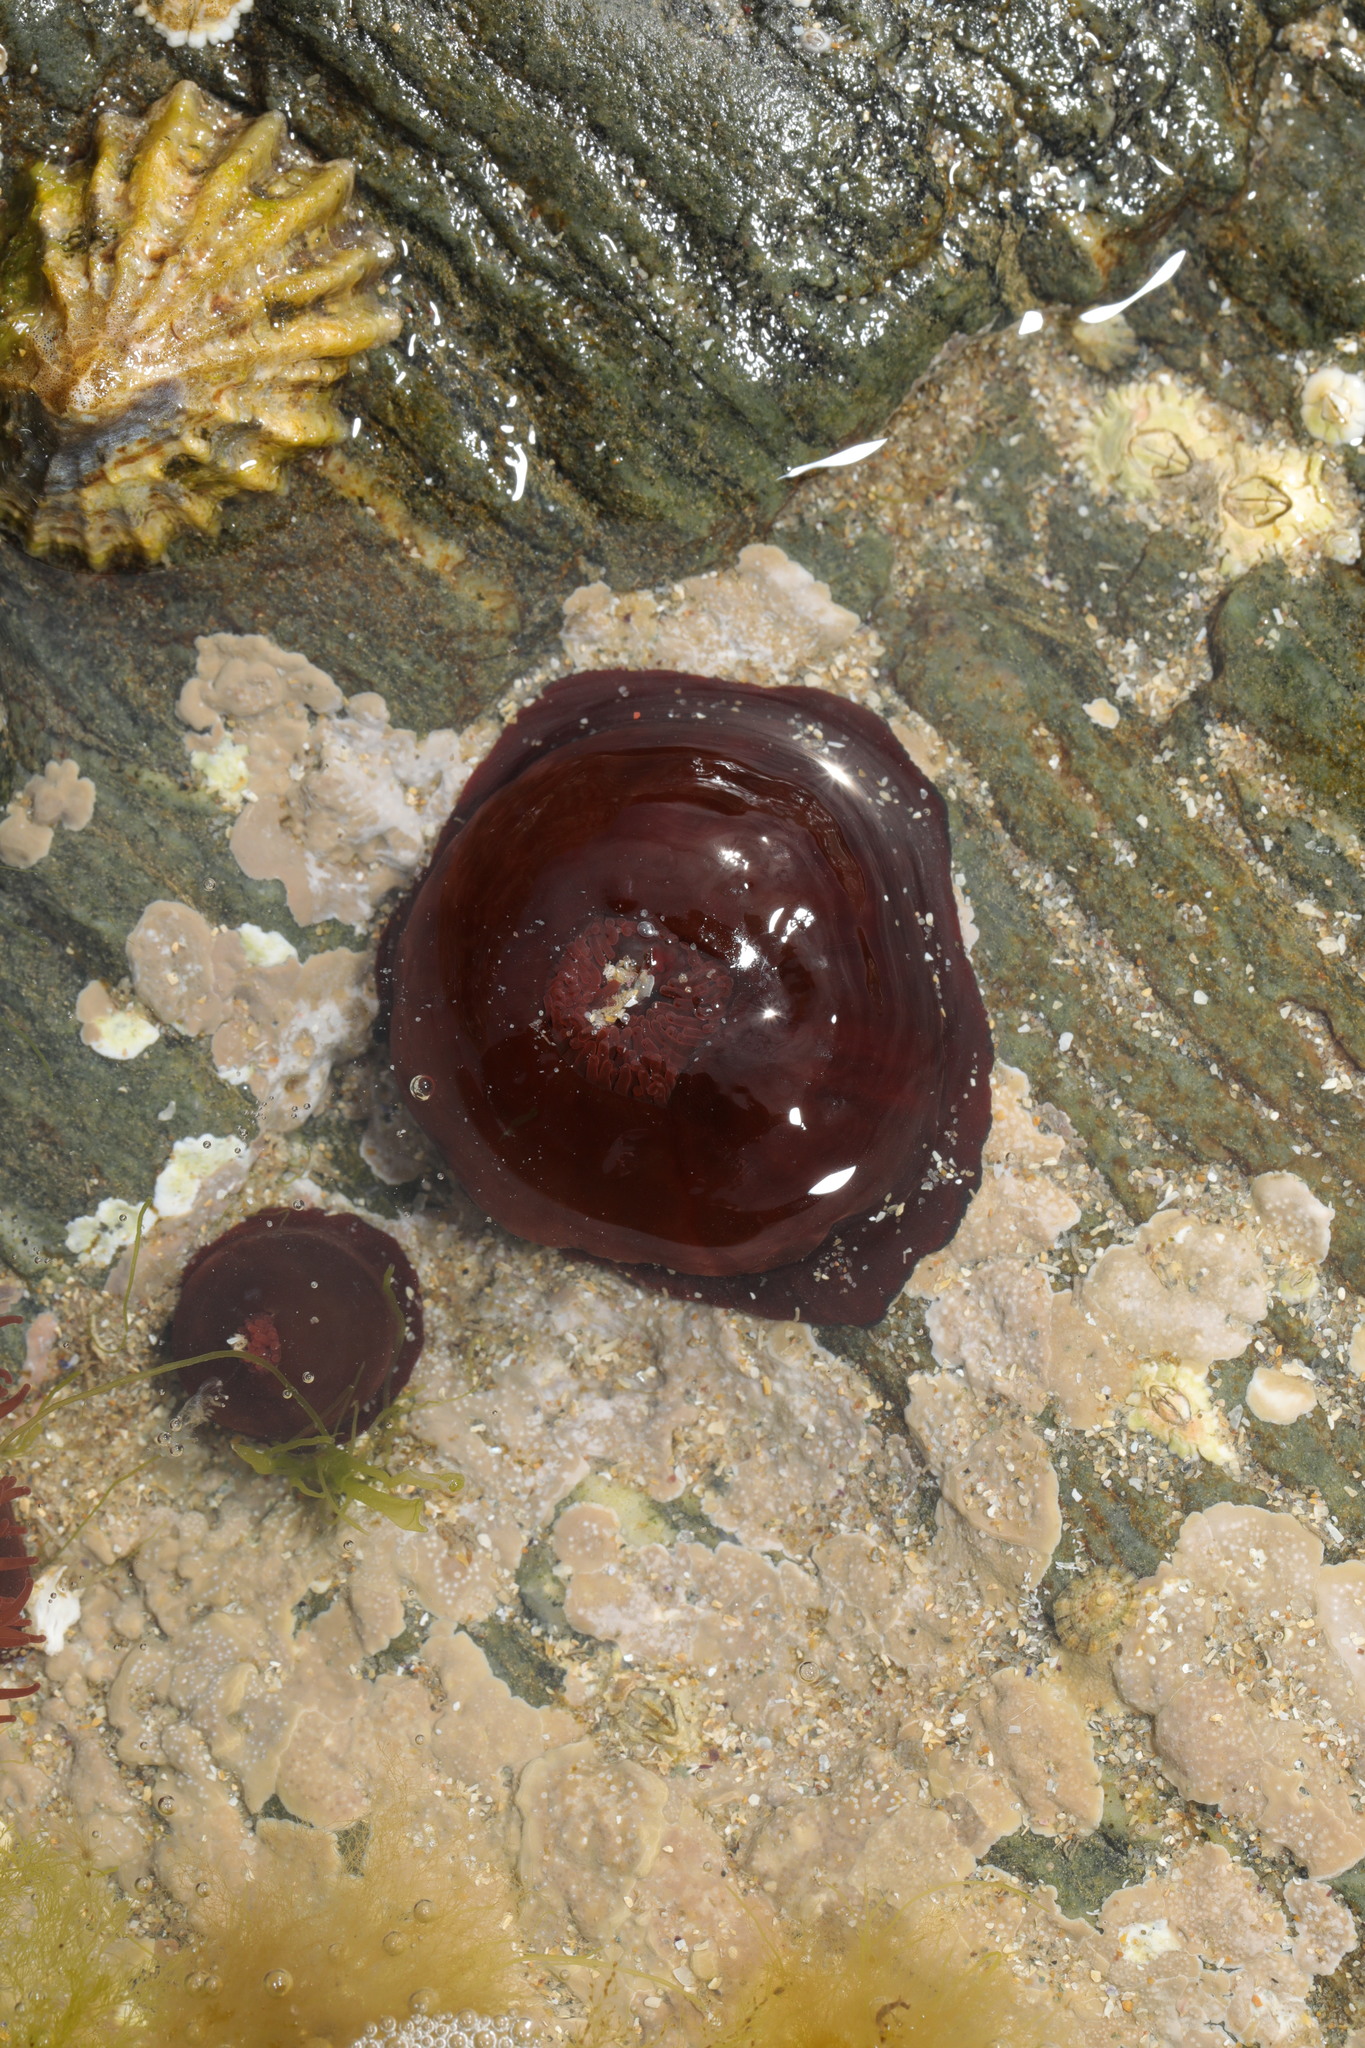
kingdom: Animalia
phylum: Cnidaria
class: Anthozoa
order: Actiniaria
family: Actiniidae
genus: Actinia
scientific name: Actinia equina
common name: Beadlet anemone
